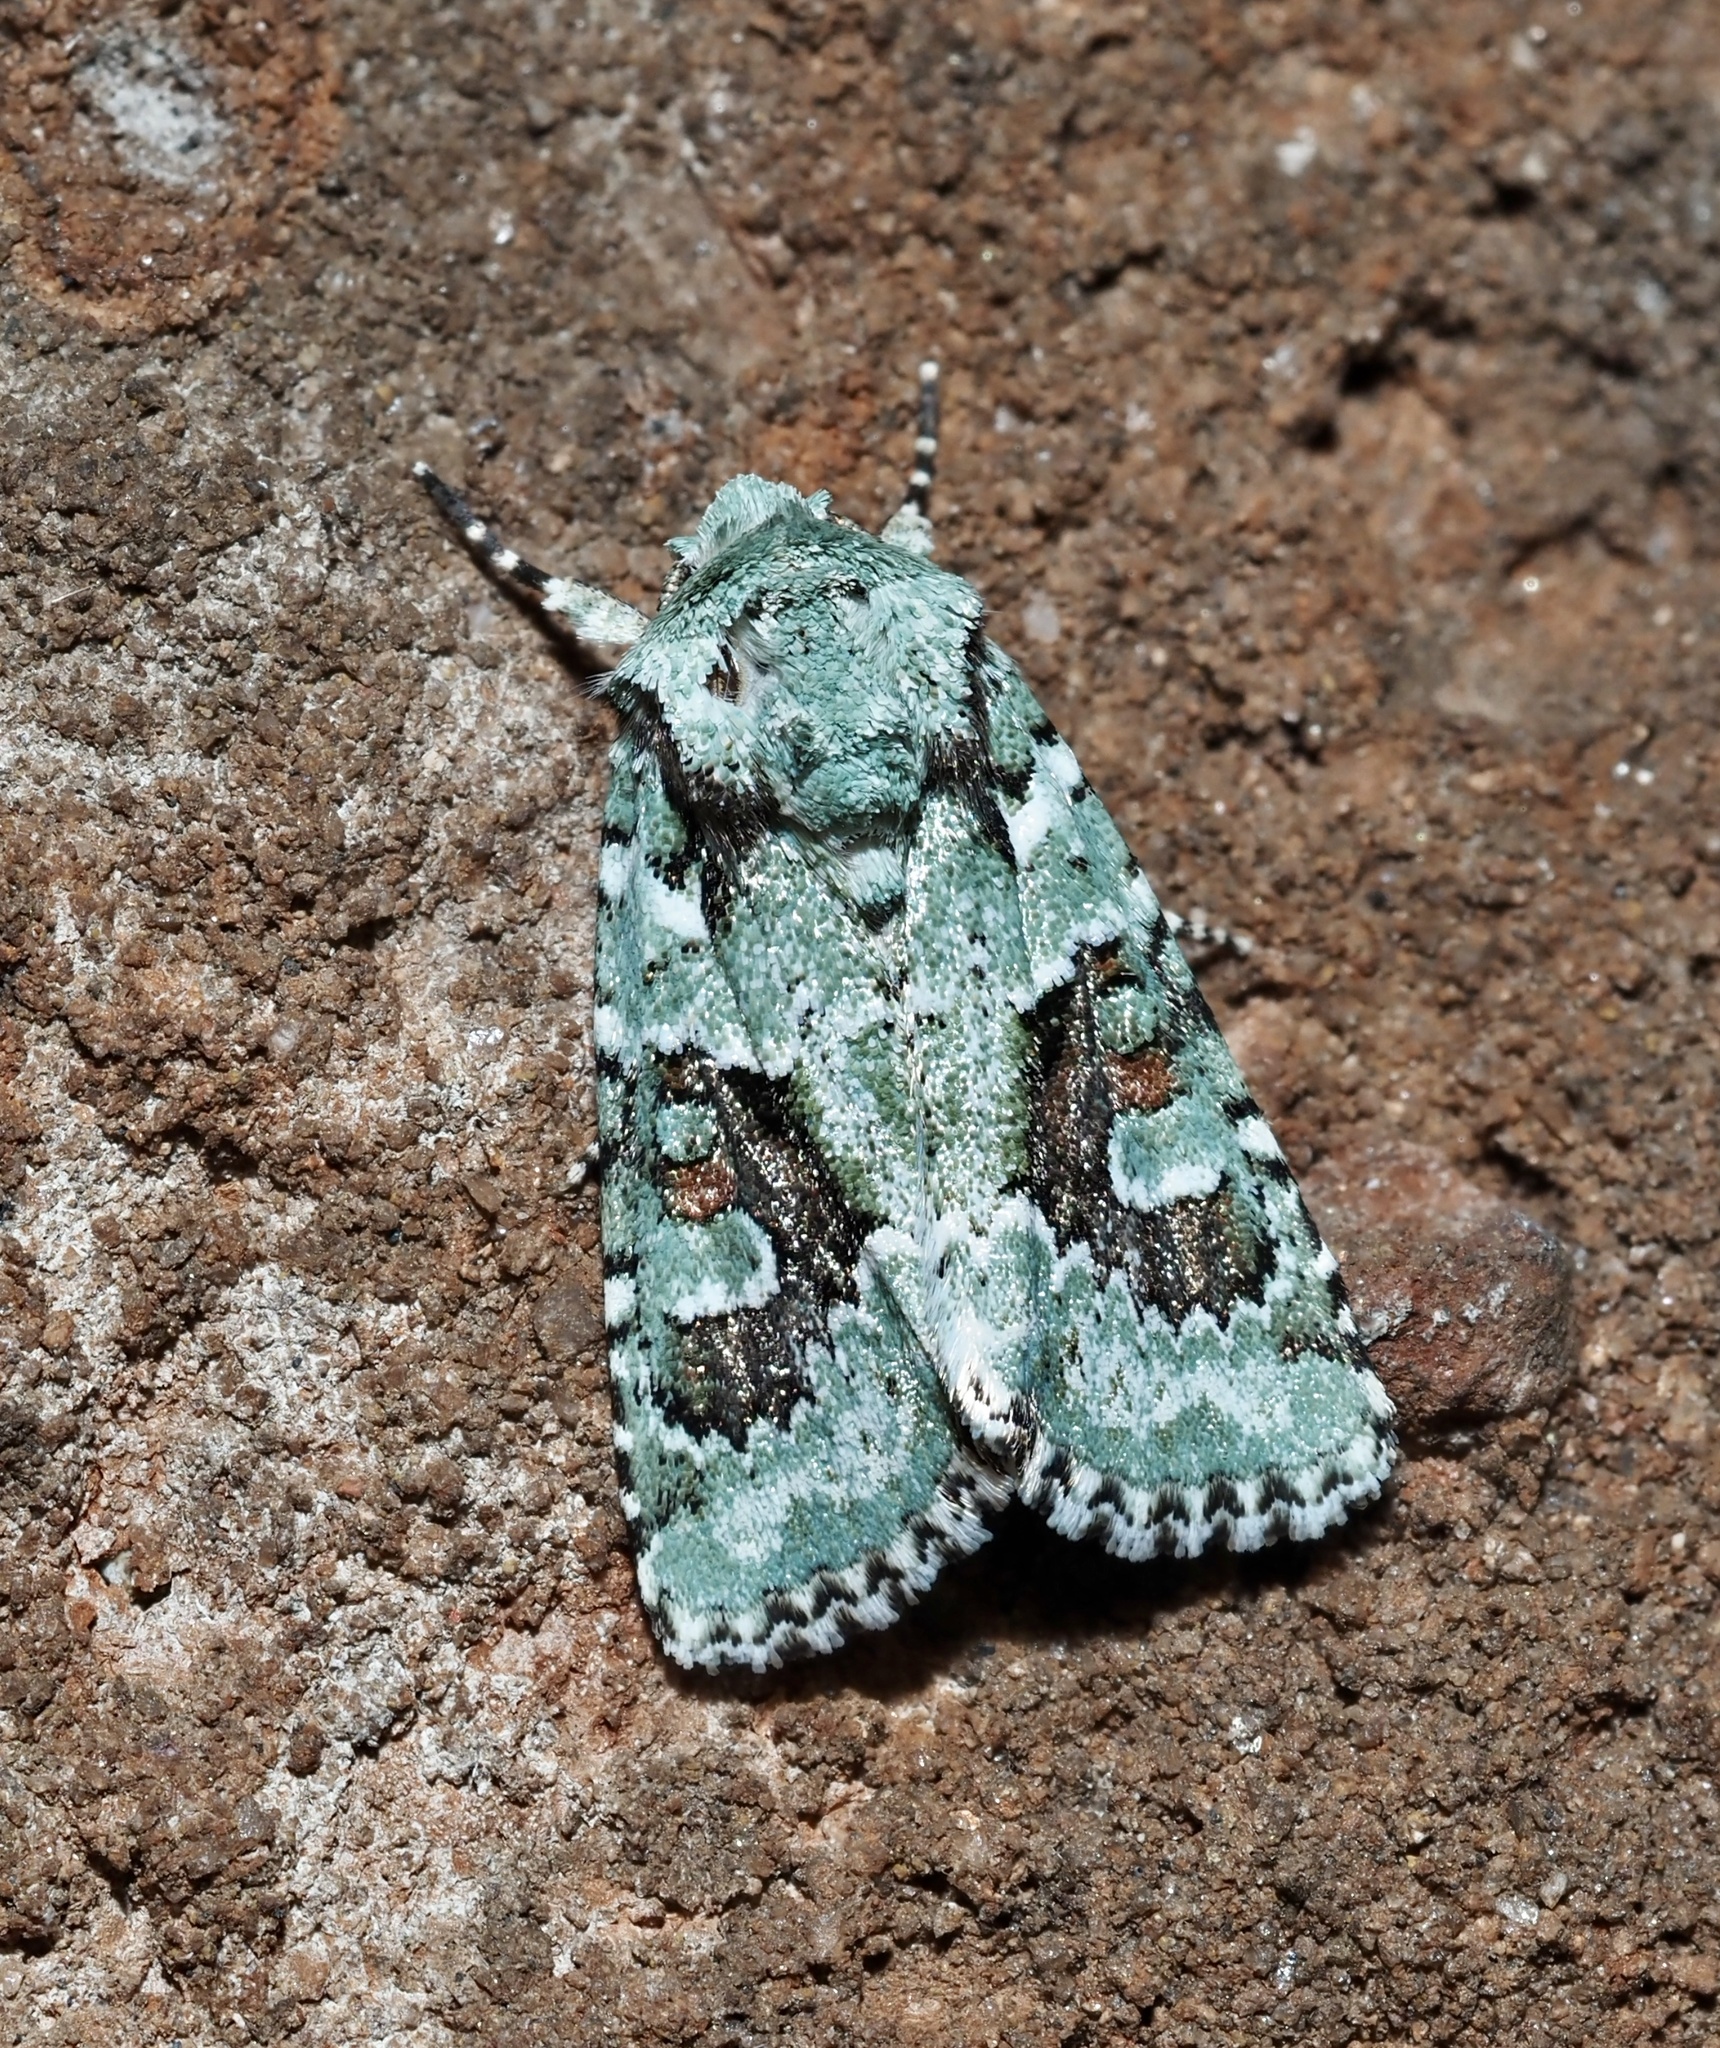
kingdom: Animalia
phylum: Arthropoda
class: Insecta
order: Lepidoptera
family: Noctuidae
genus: Lacinipolia
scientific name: Lacinipolia laudabilis
